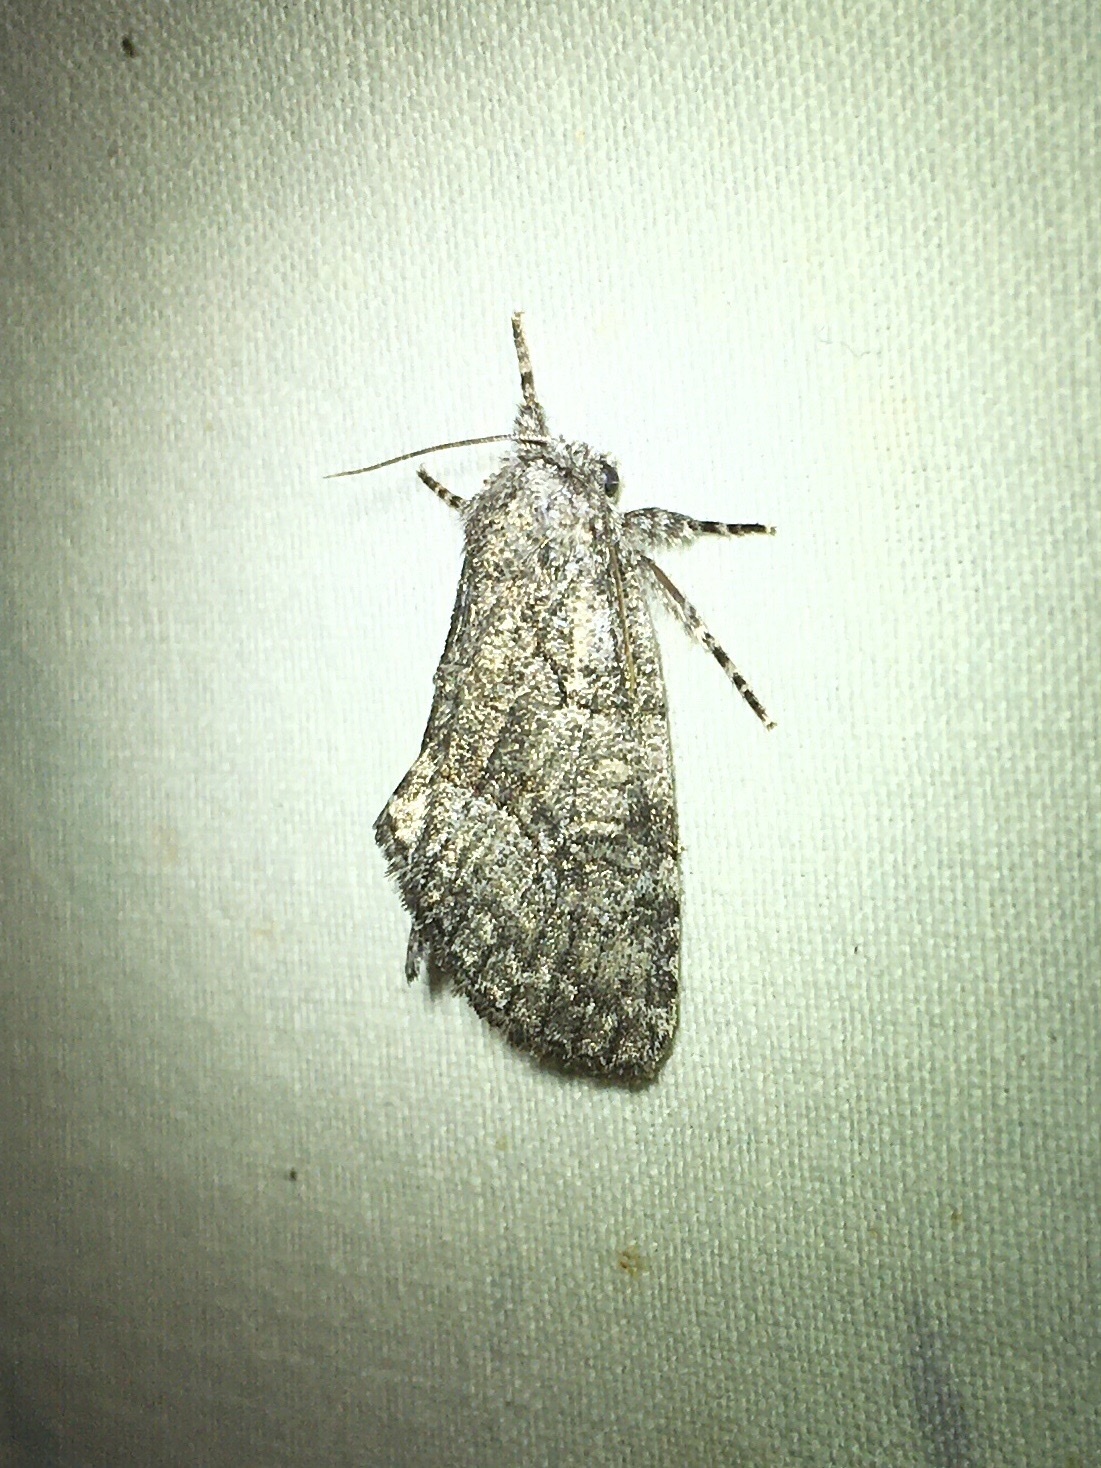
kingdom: Animalia
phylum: Arthropoda
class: Insecta
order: Lepidoptera
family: Noctuidae
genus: Raphia
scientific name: Raphia frater
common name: Brother
